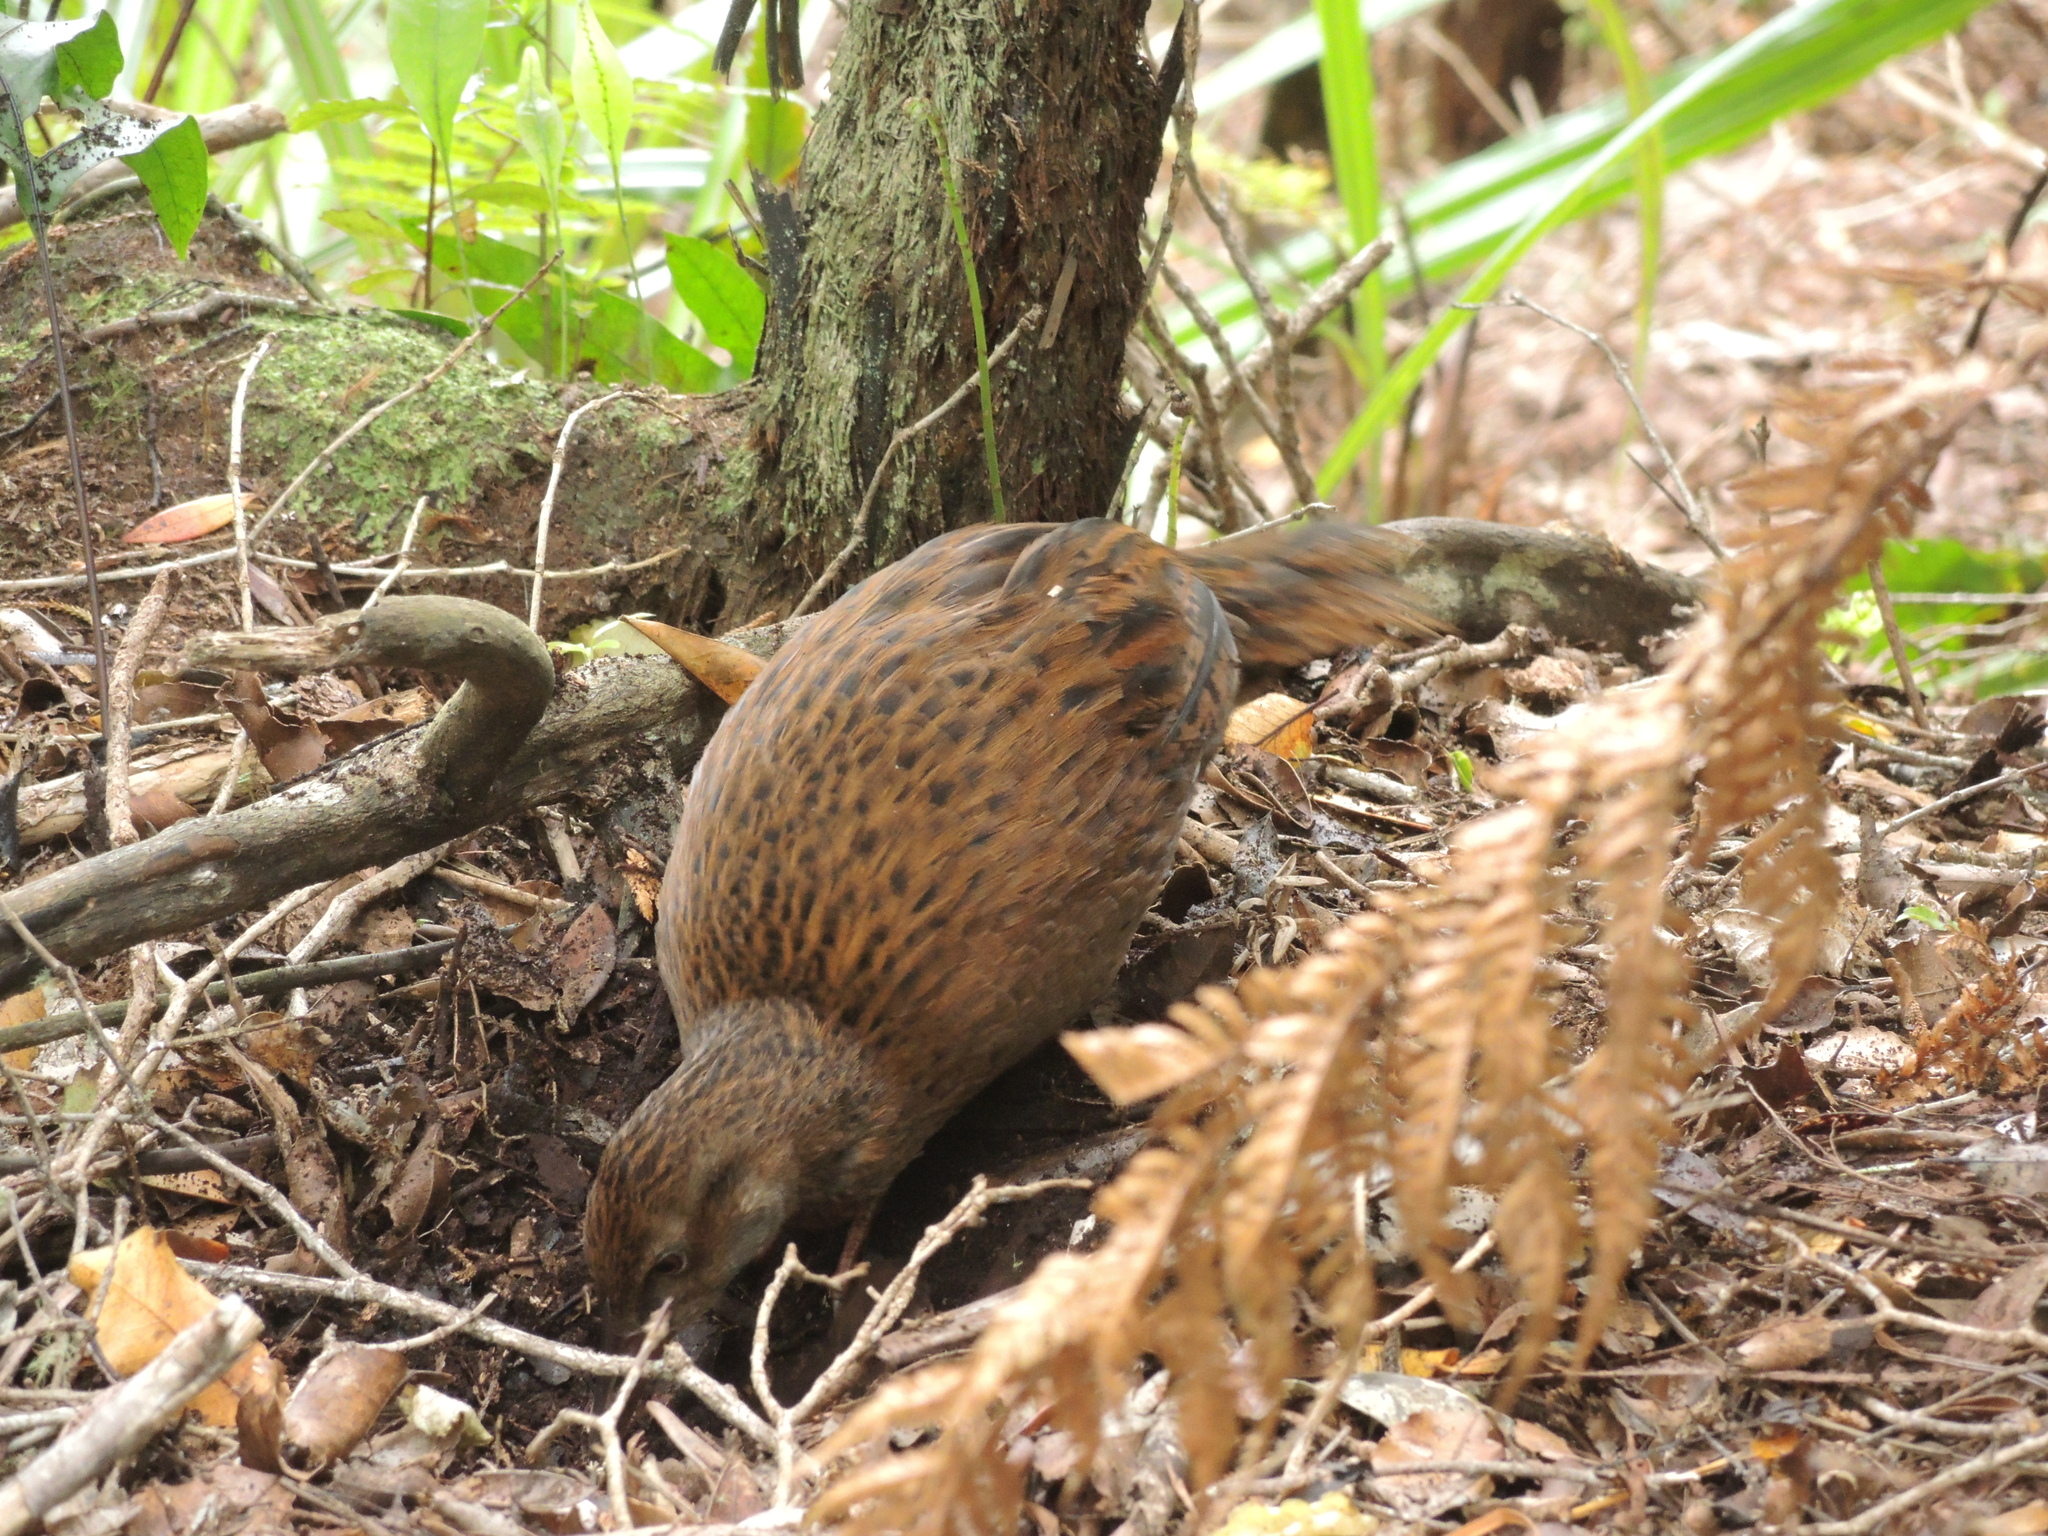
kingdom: Animalia
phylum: Chordata
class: Aves
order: Gruiformes
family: Rallidae
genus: Gallirallus
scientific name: Gallirallus australis
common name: Weka
